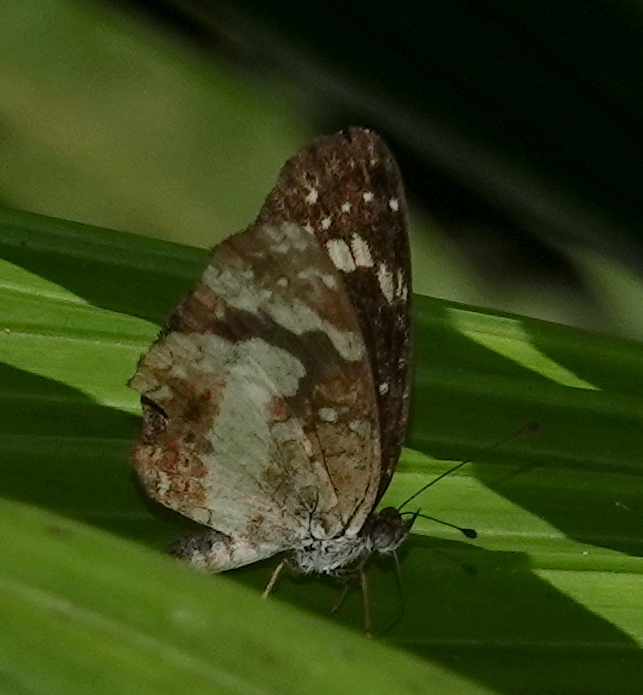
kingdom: Animalia
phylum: Arthropoda
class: Insecta
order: Lepidoptera
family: Nymphalidae
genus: Castilia
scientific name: Castilia ofella
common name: White-dotted crescent
